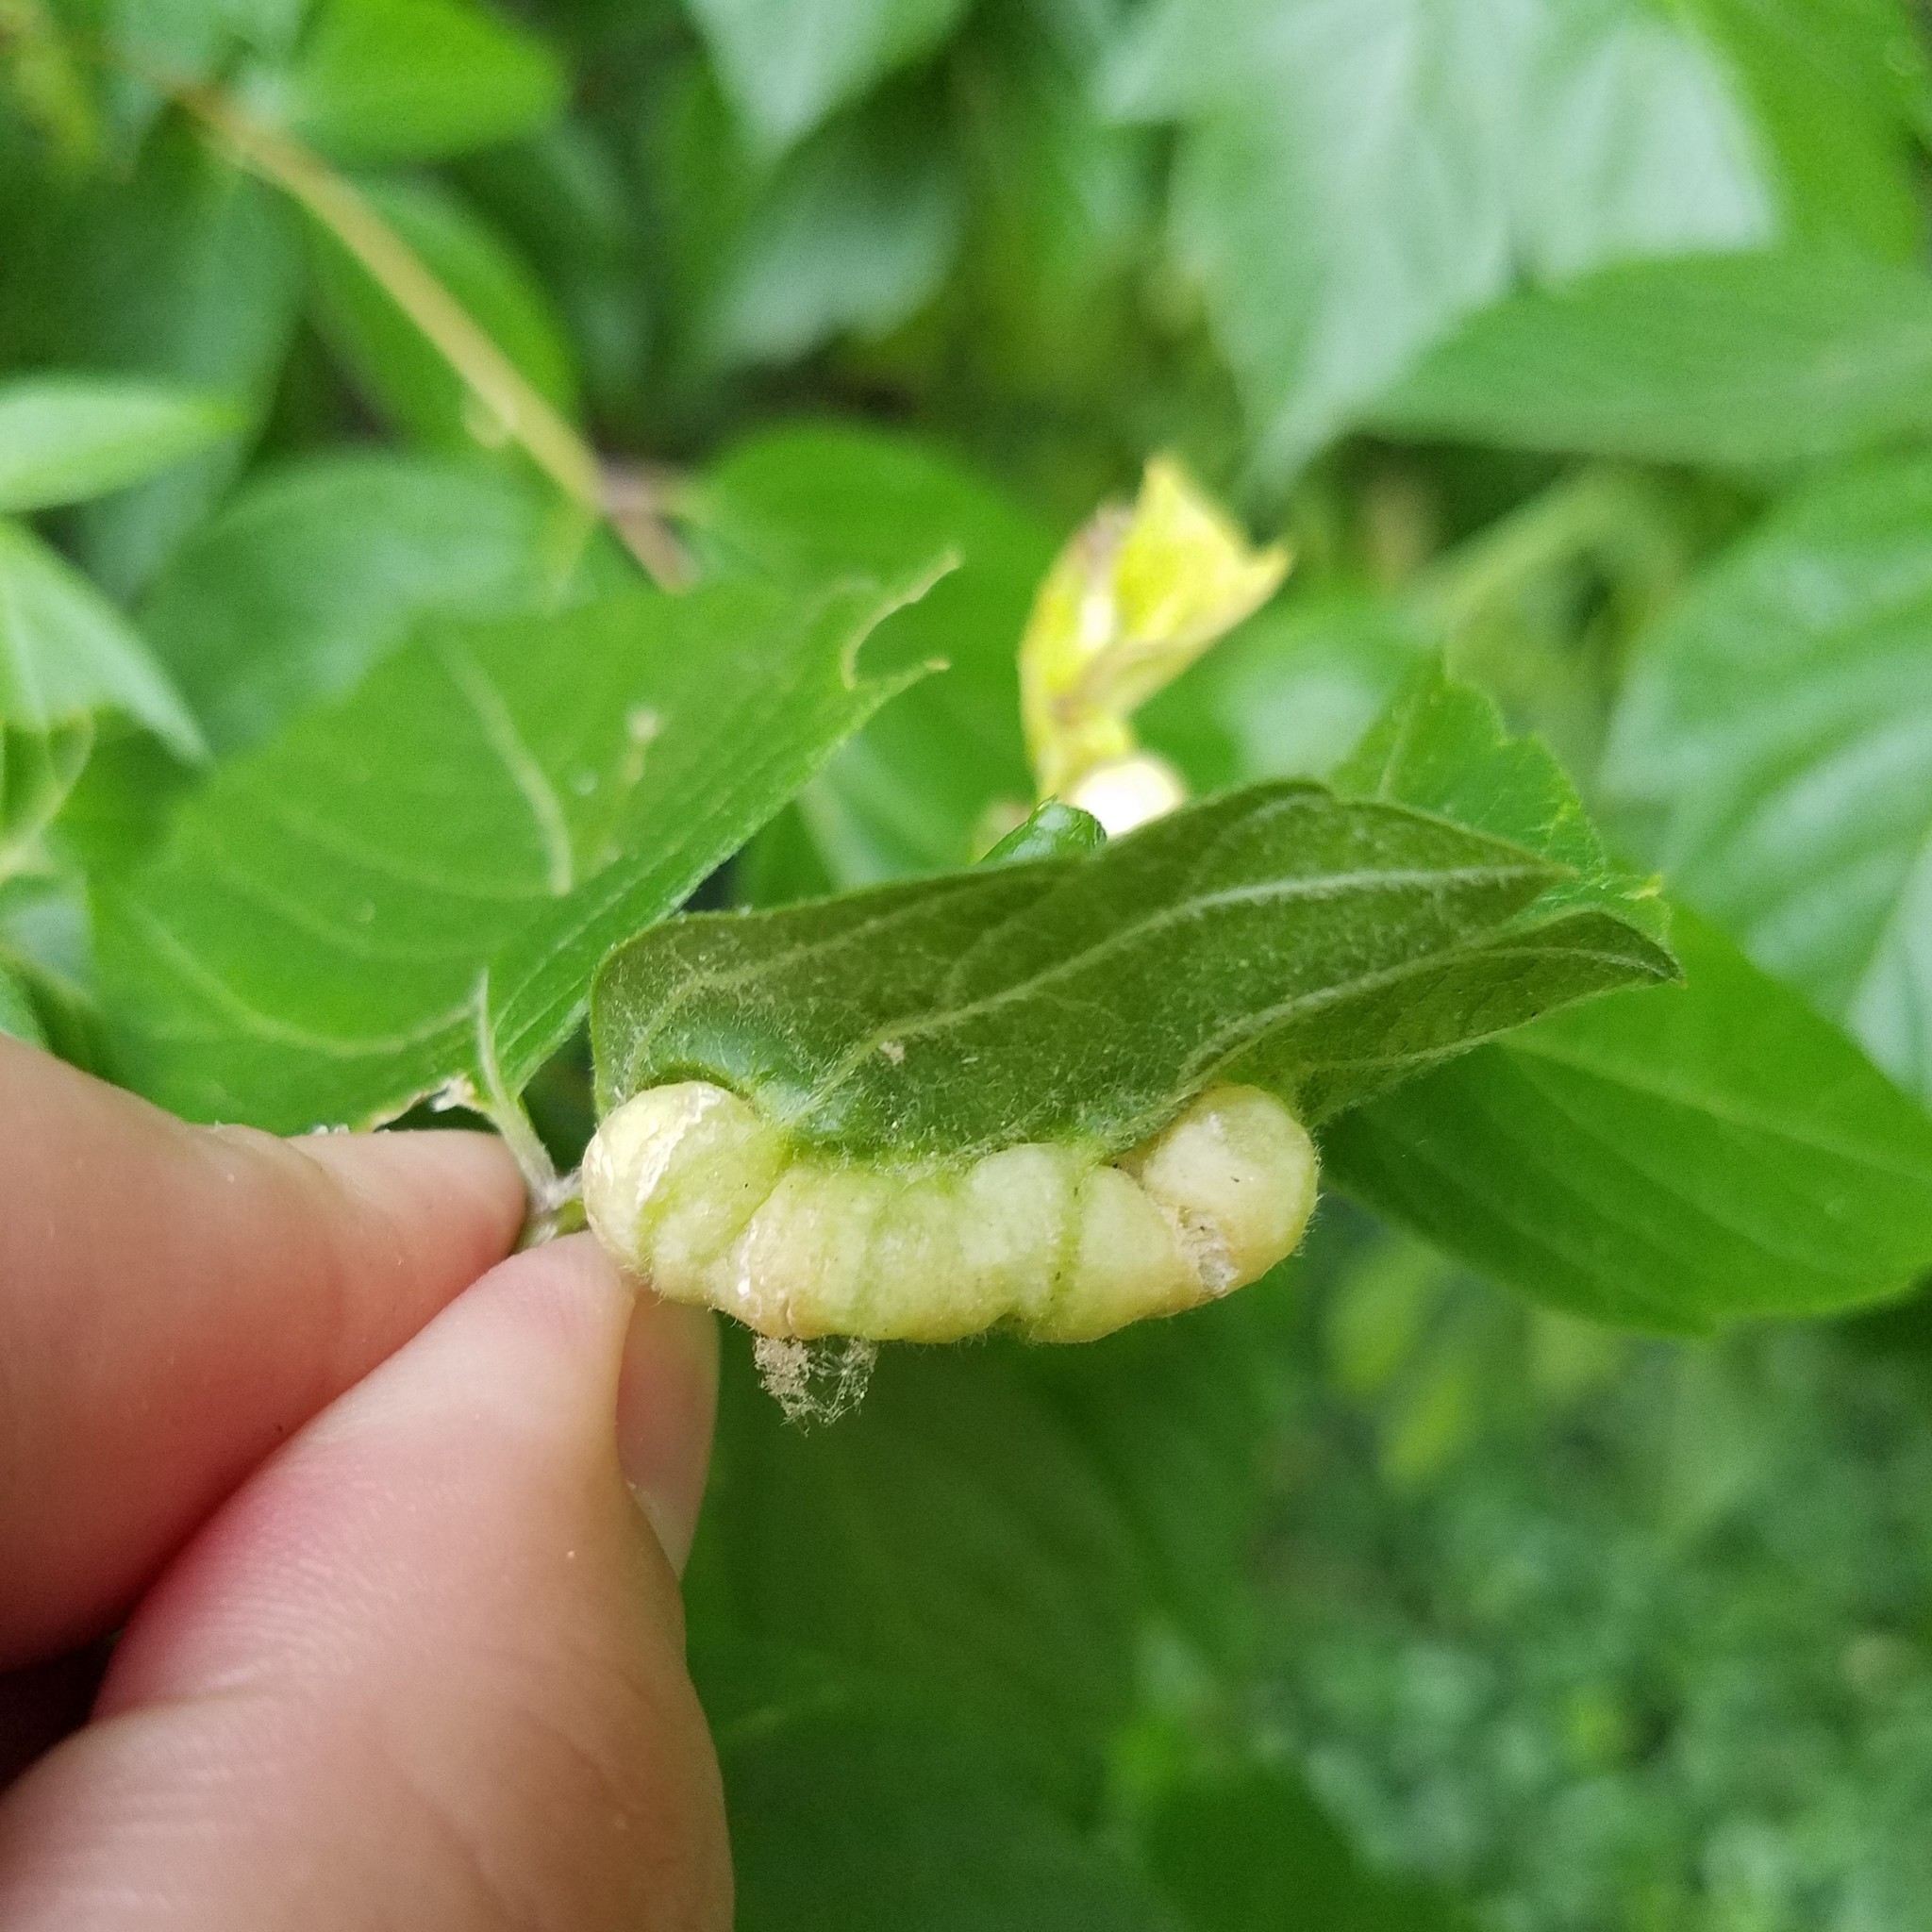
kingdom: Animalia
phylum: Arthropoda
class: Insecta
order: Diptera
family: Cecidomyiidae
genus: Contarinia
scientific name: Contarinia negundinis
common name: Boxelder budgall midge
